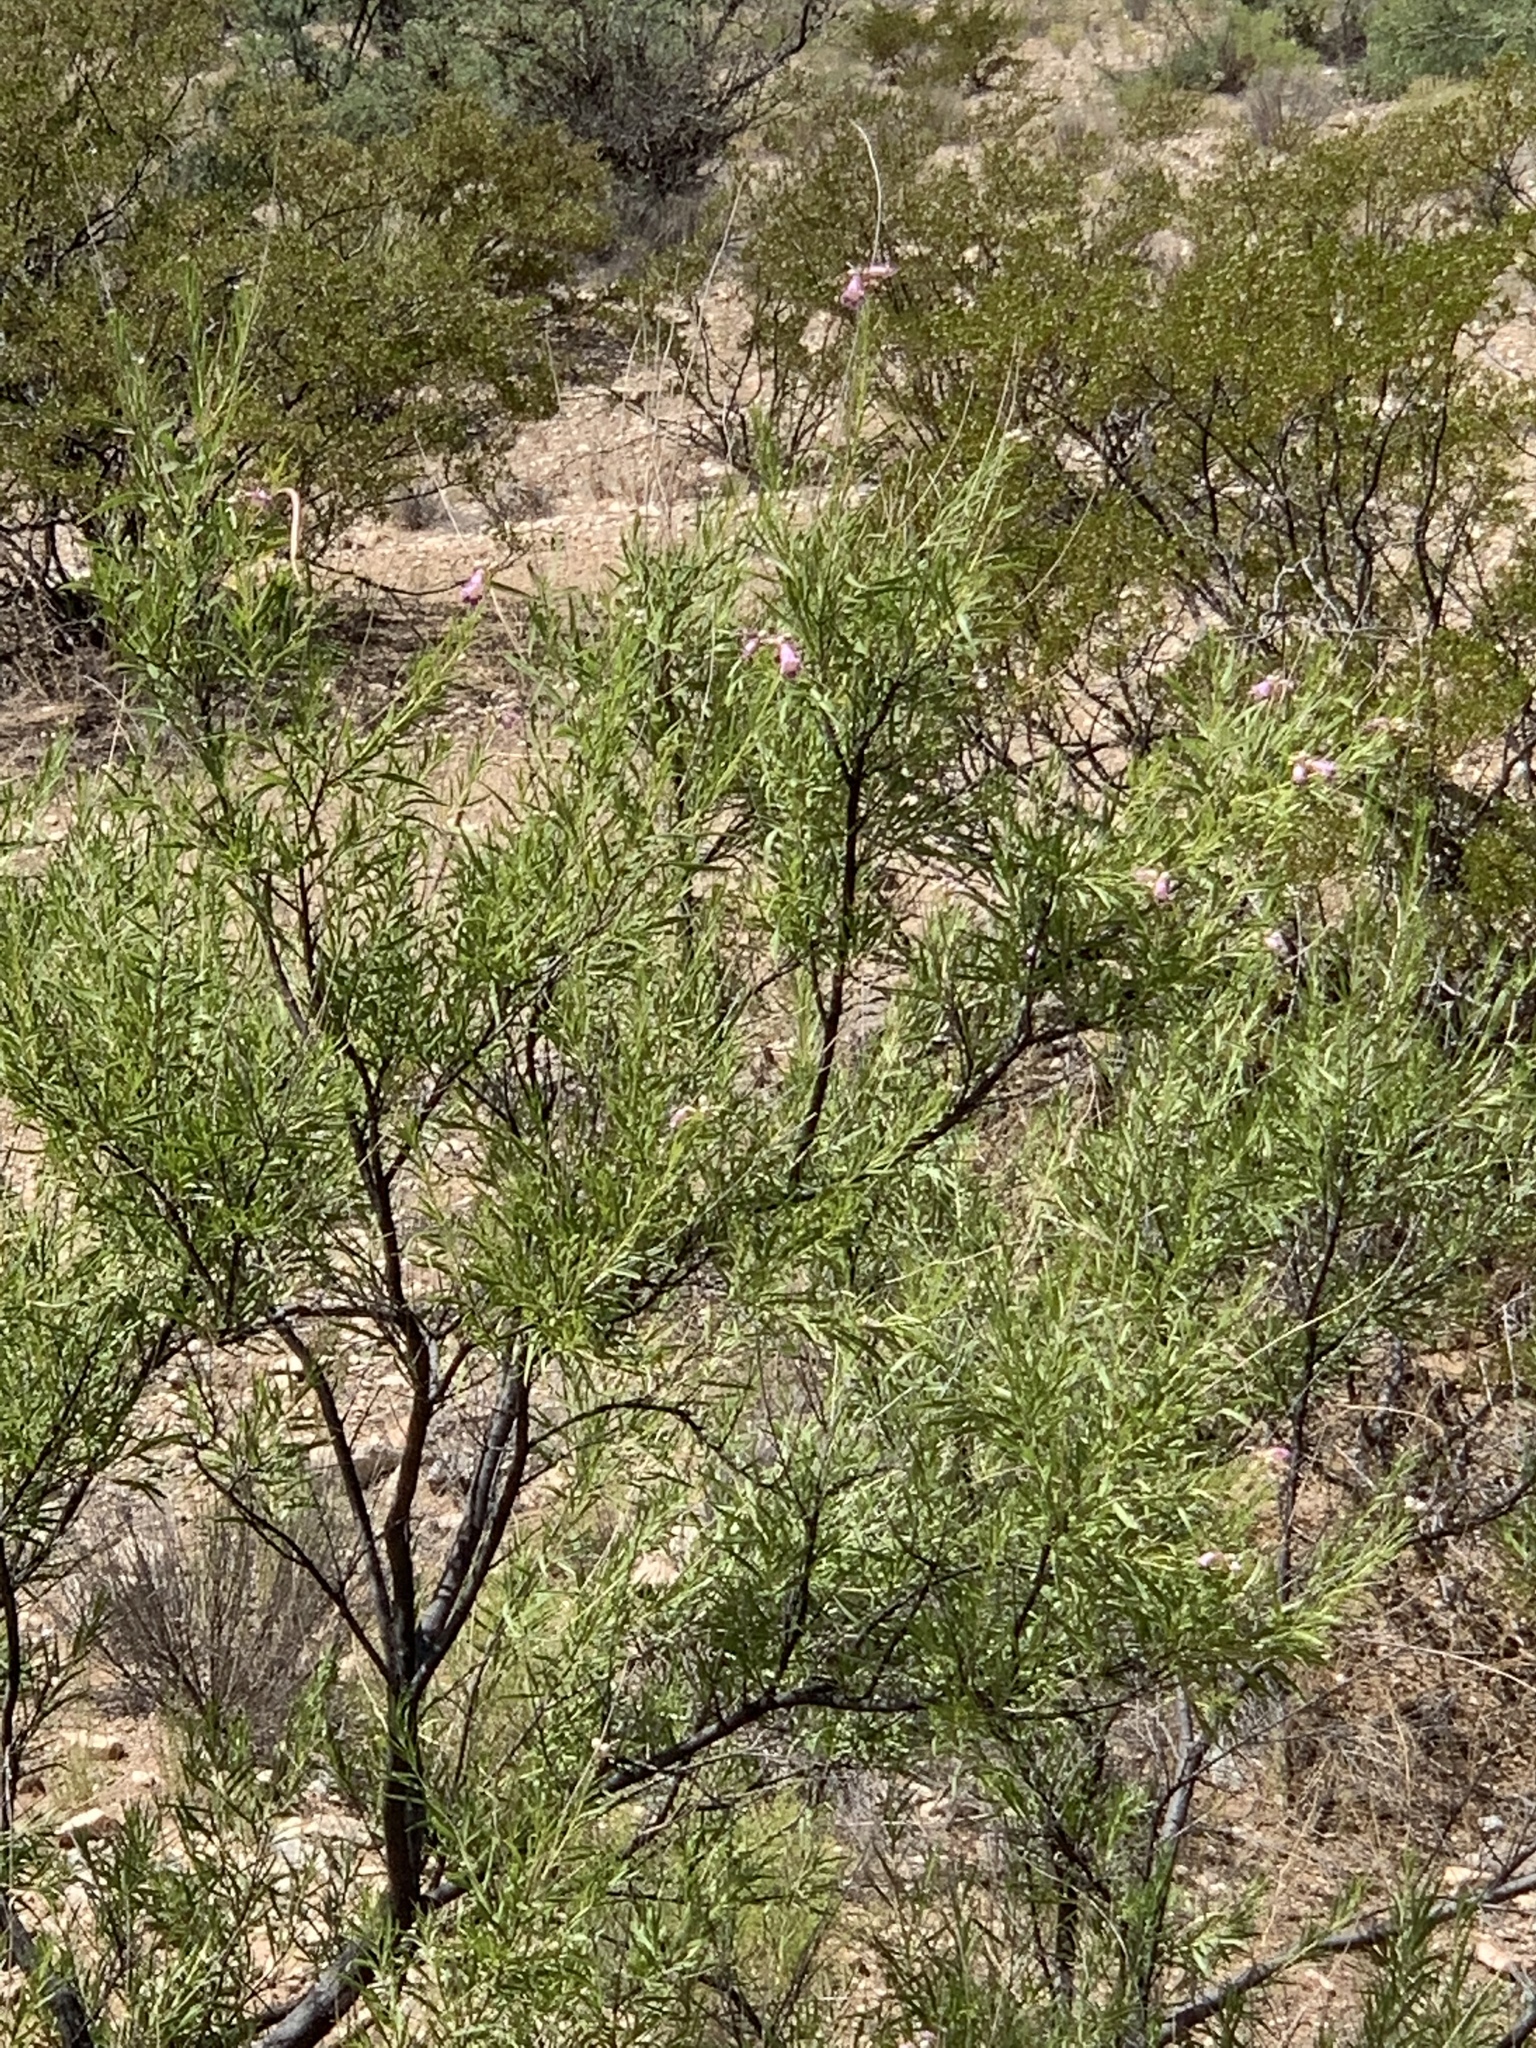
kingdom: Plantae
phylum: Tracheophyta
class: Magnoliopsida
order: Lamiales
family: Bignoniaceae
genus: Chilopsis
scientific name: Chilopsis linearis
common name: Desert-willow
